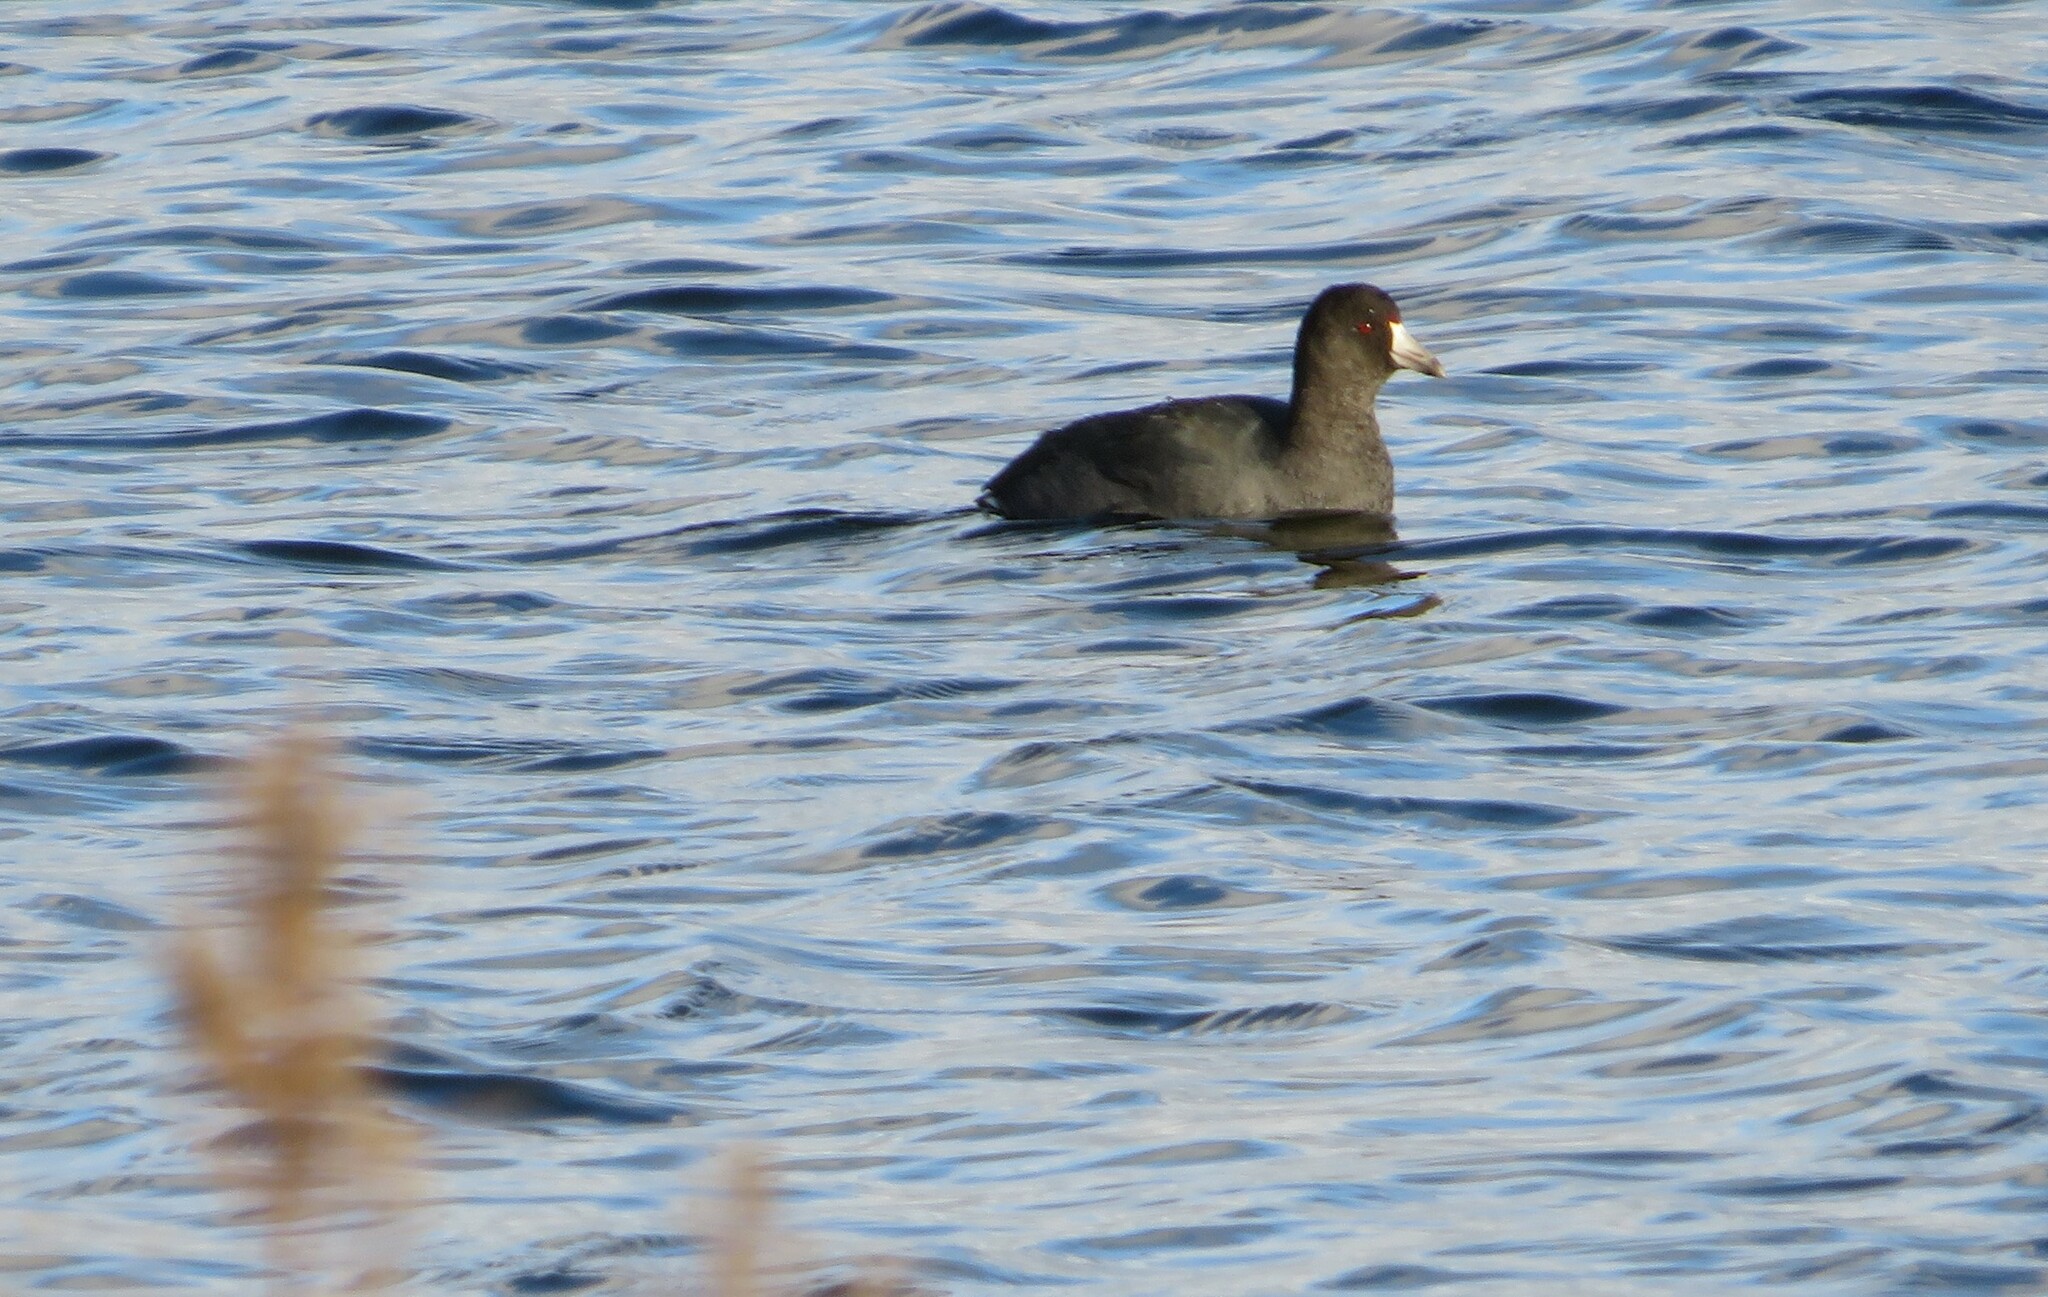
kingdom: Animalia
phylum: Chordata
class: Aves
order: Gruiformes
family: Rallidae
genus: Fulica
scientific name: Fulica americana
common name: American coot
